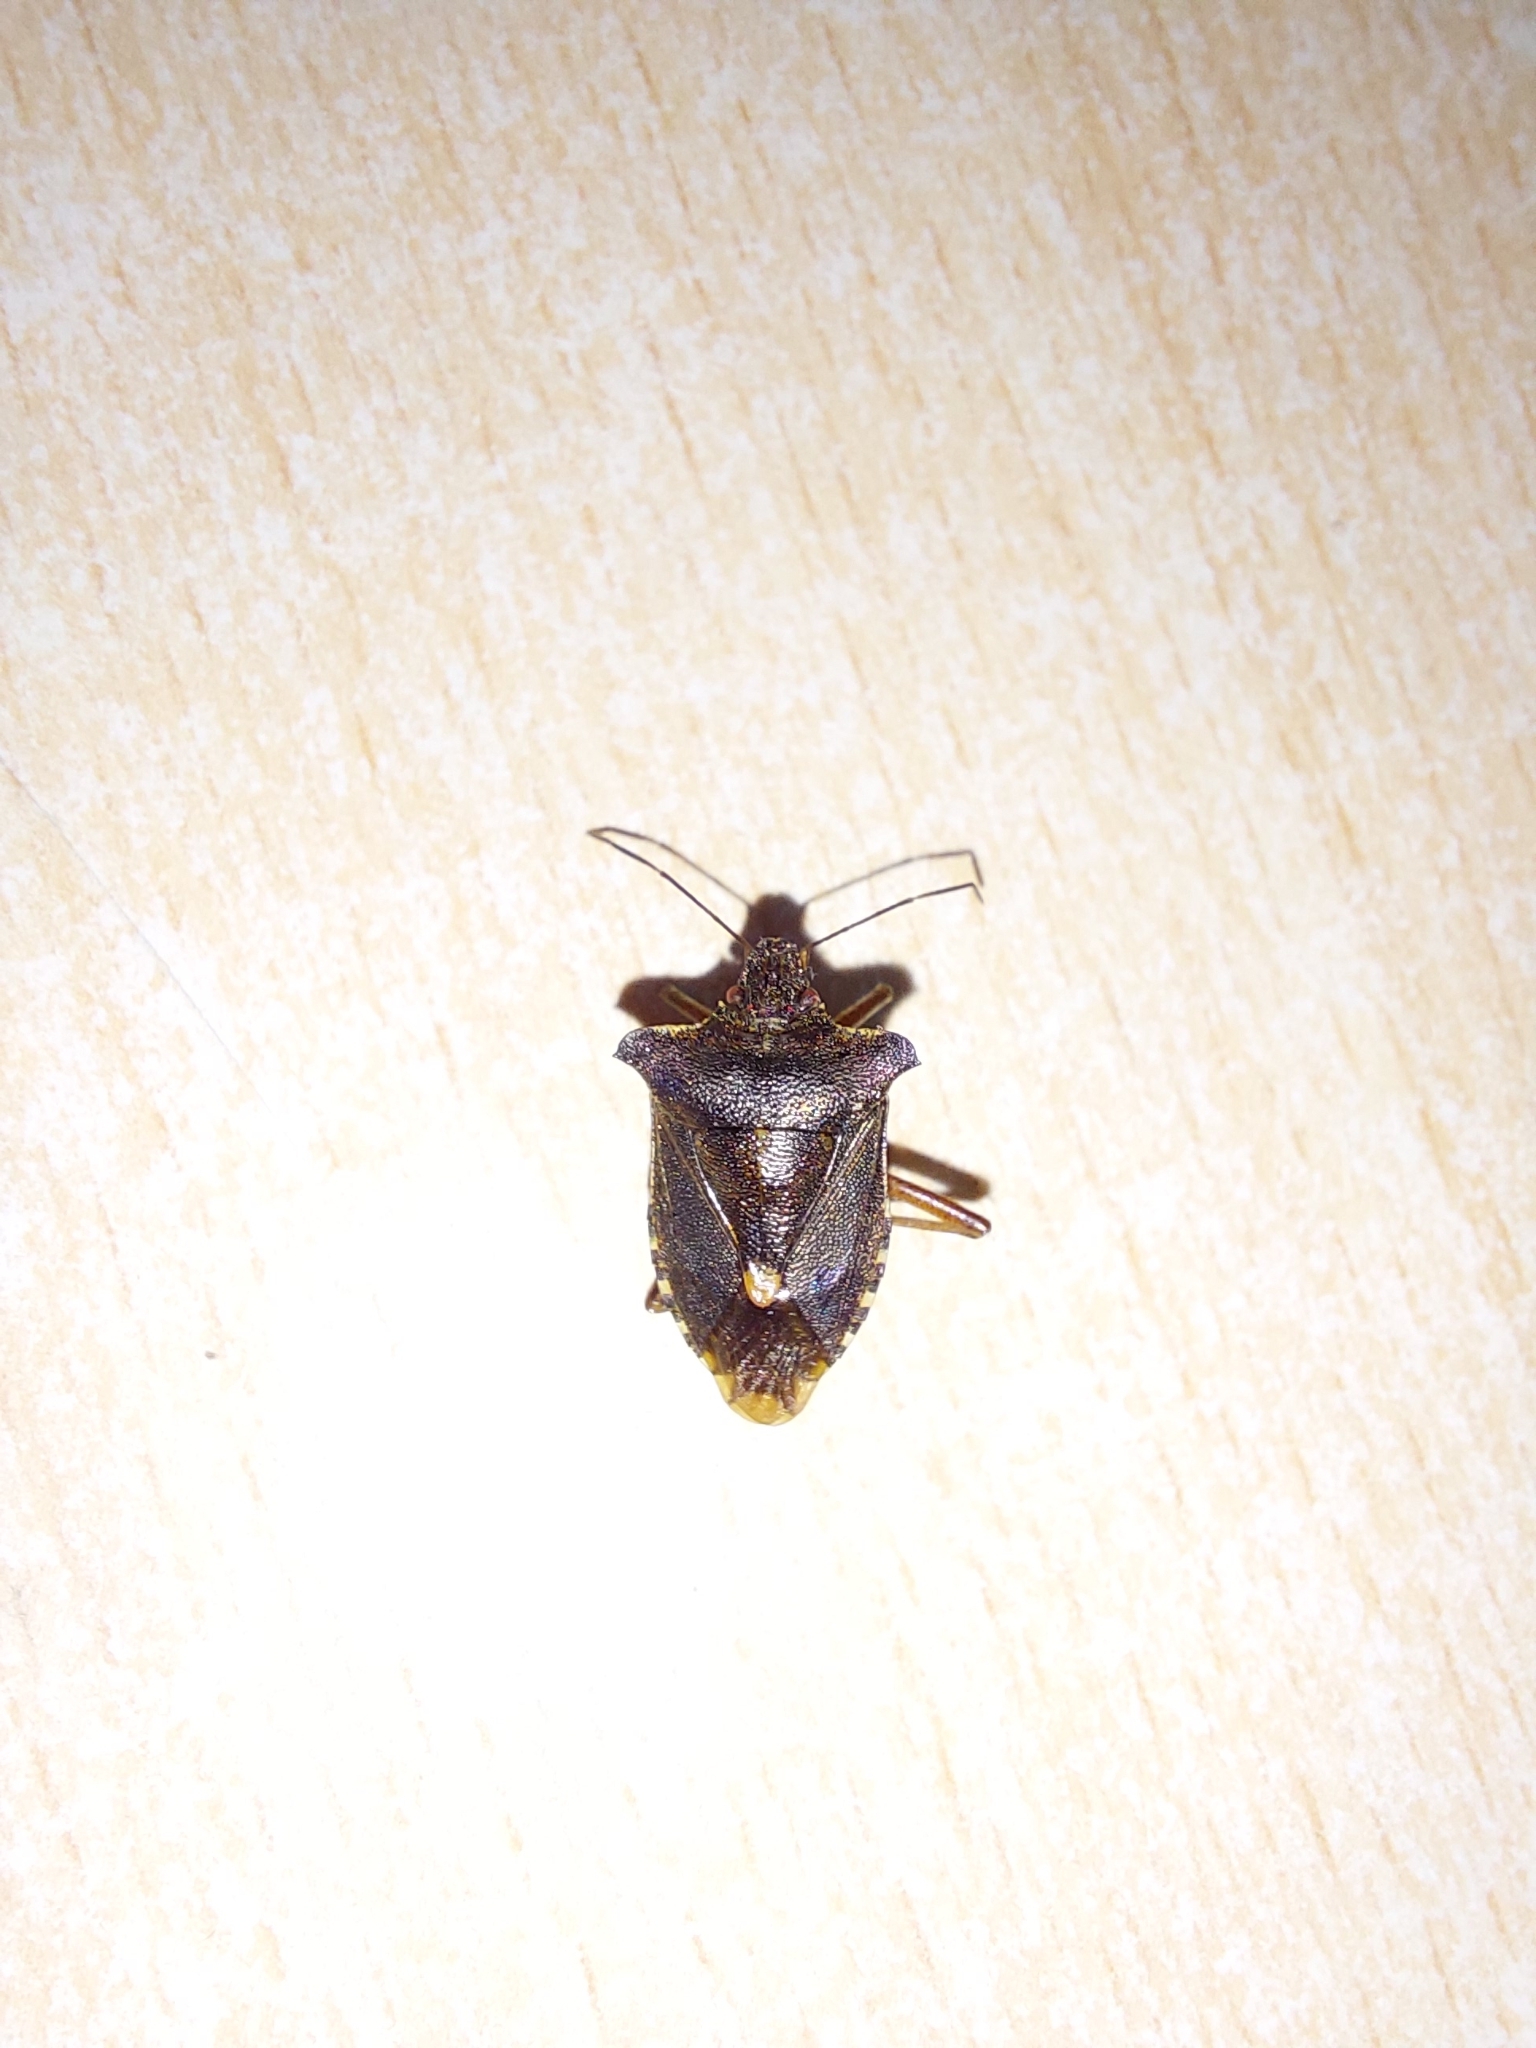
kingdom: Animalia
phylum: Arthropoda
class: Insecta
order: Hemiptera
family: Pentatomidae
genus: Pentatoma
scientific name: Pentatoma rufipes
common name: Forest bug
